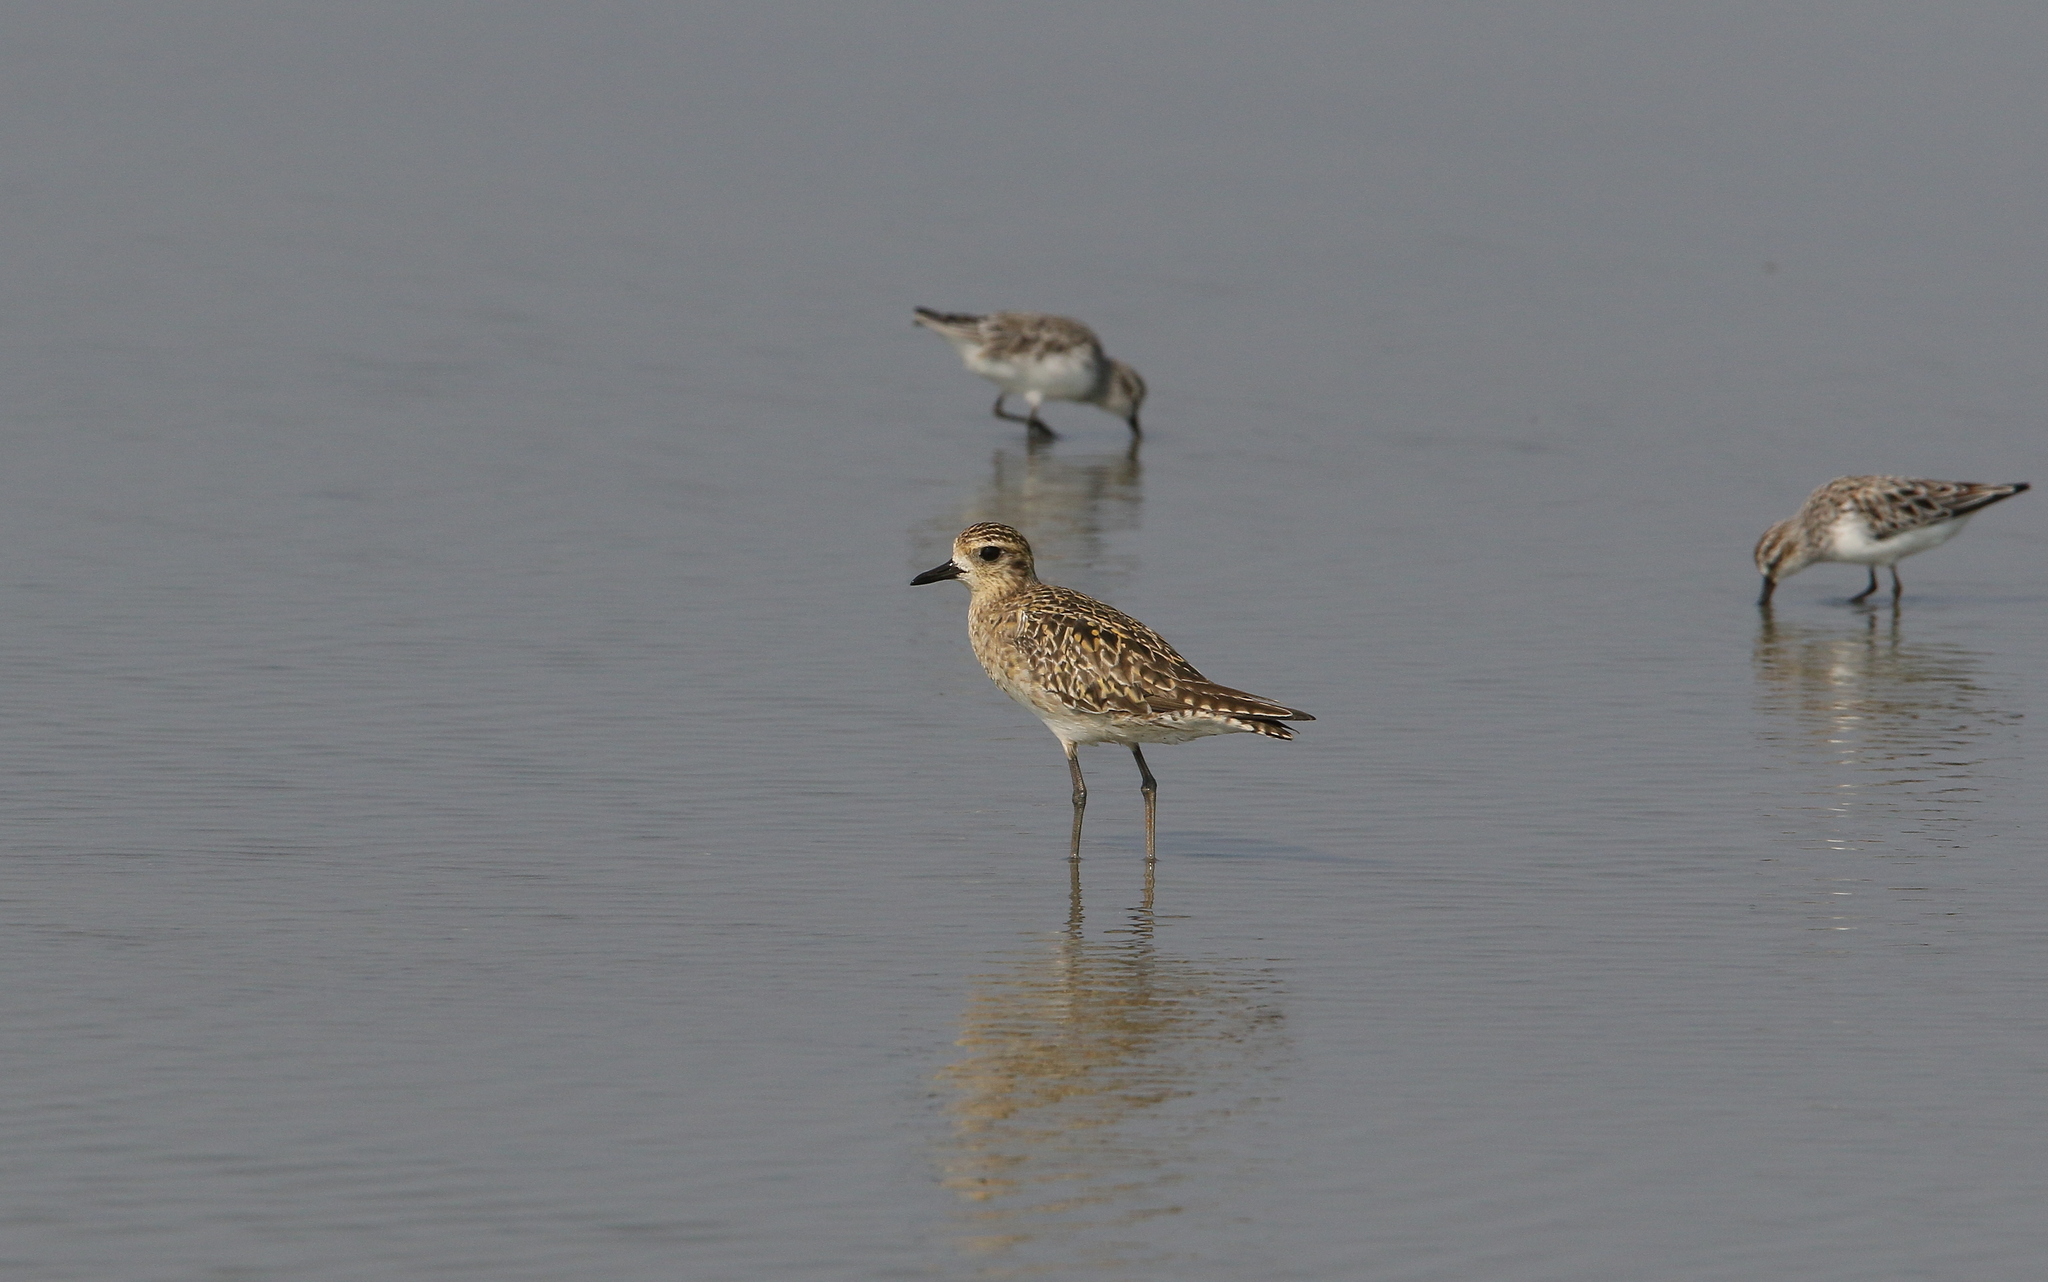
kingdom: Animalia
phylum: Chordata
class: Aves
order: Charadriiformes
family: Charadriidae
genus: Pluvialis
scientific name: Pluvialis fulva
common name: Pacific golden plover
